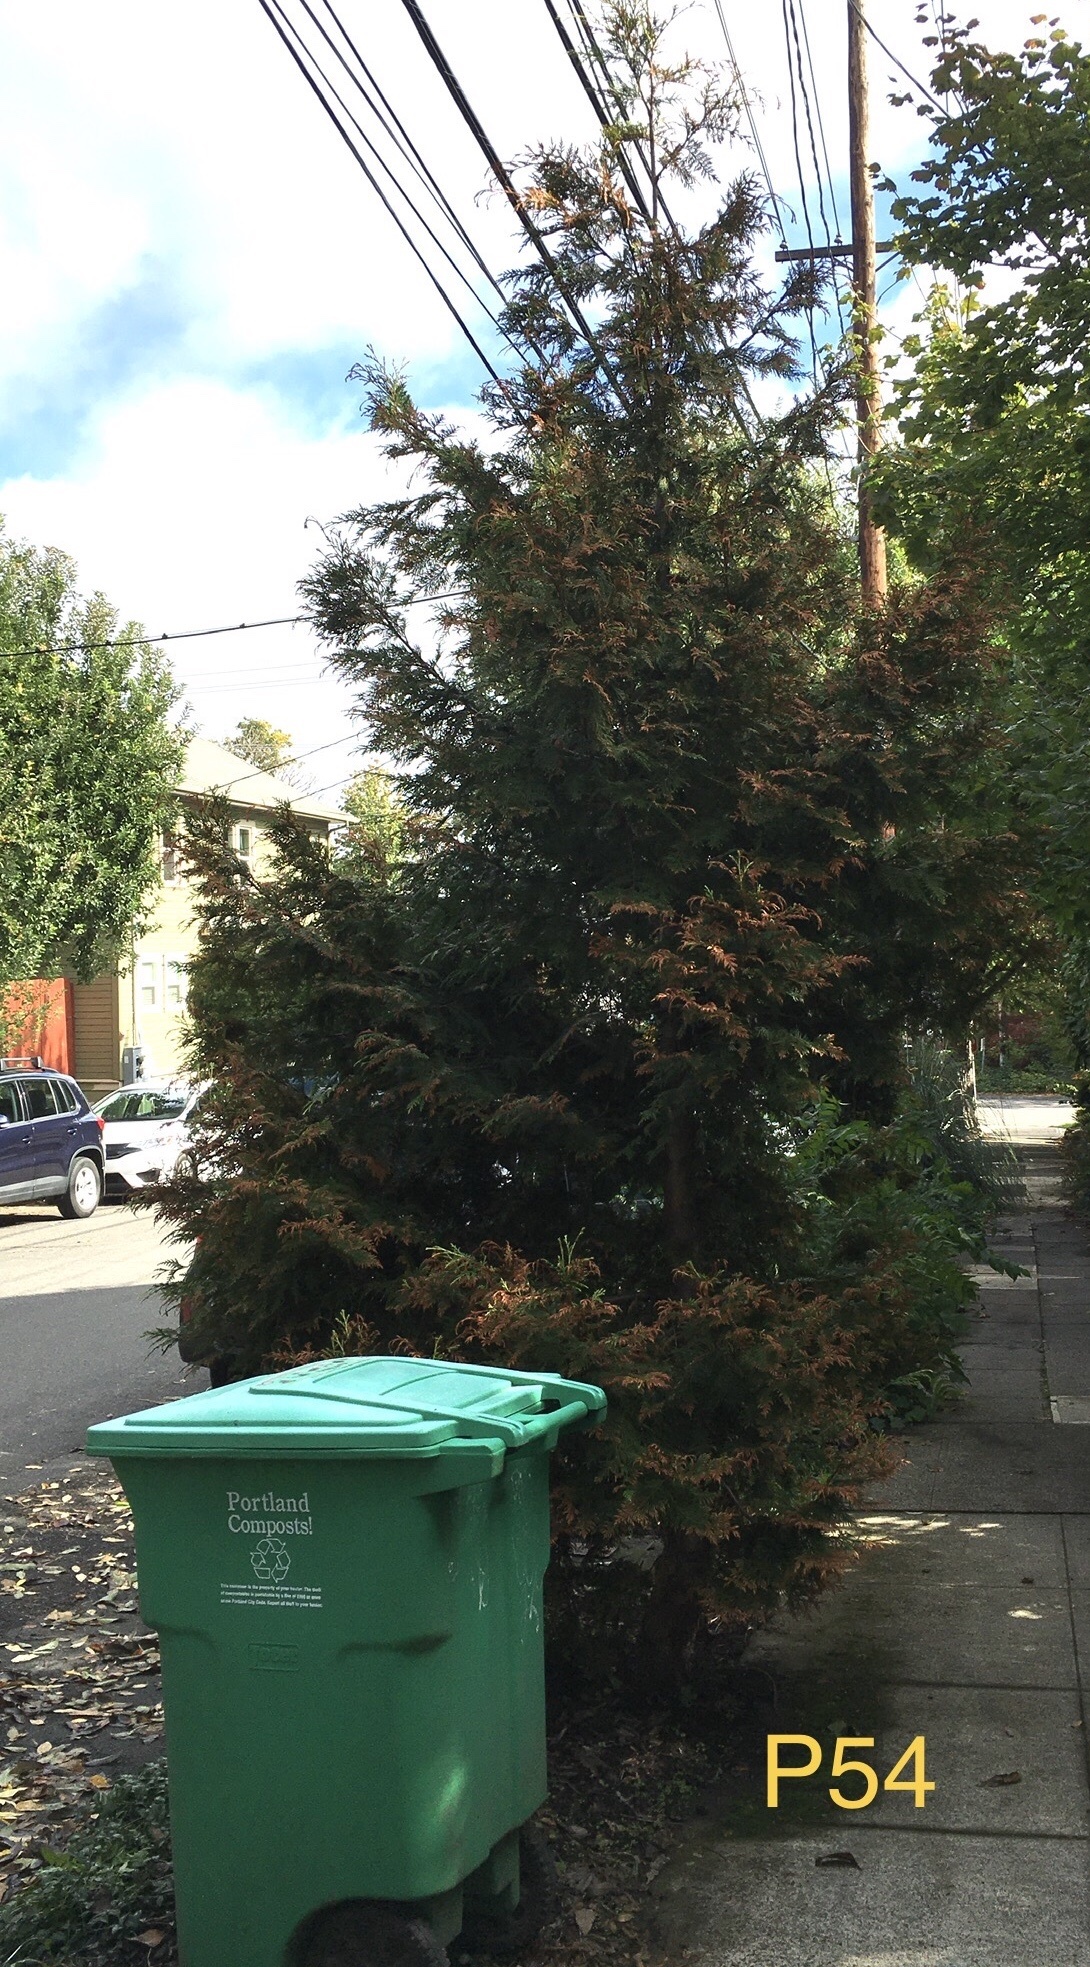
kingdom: Plantae
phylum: Tracheophyta
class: Pinopsida
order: Pinales
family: Cupressaceae
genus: Thuja
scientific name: Thuja plicata
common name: Western red-cedar
